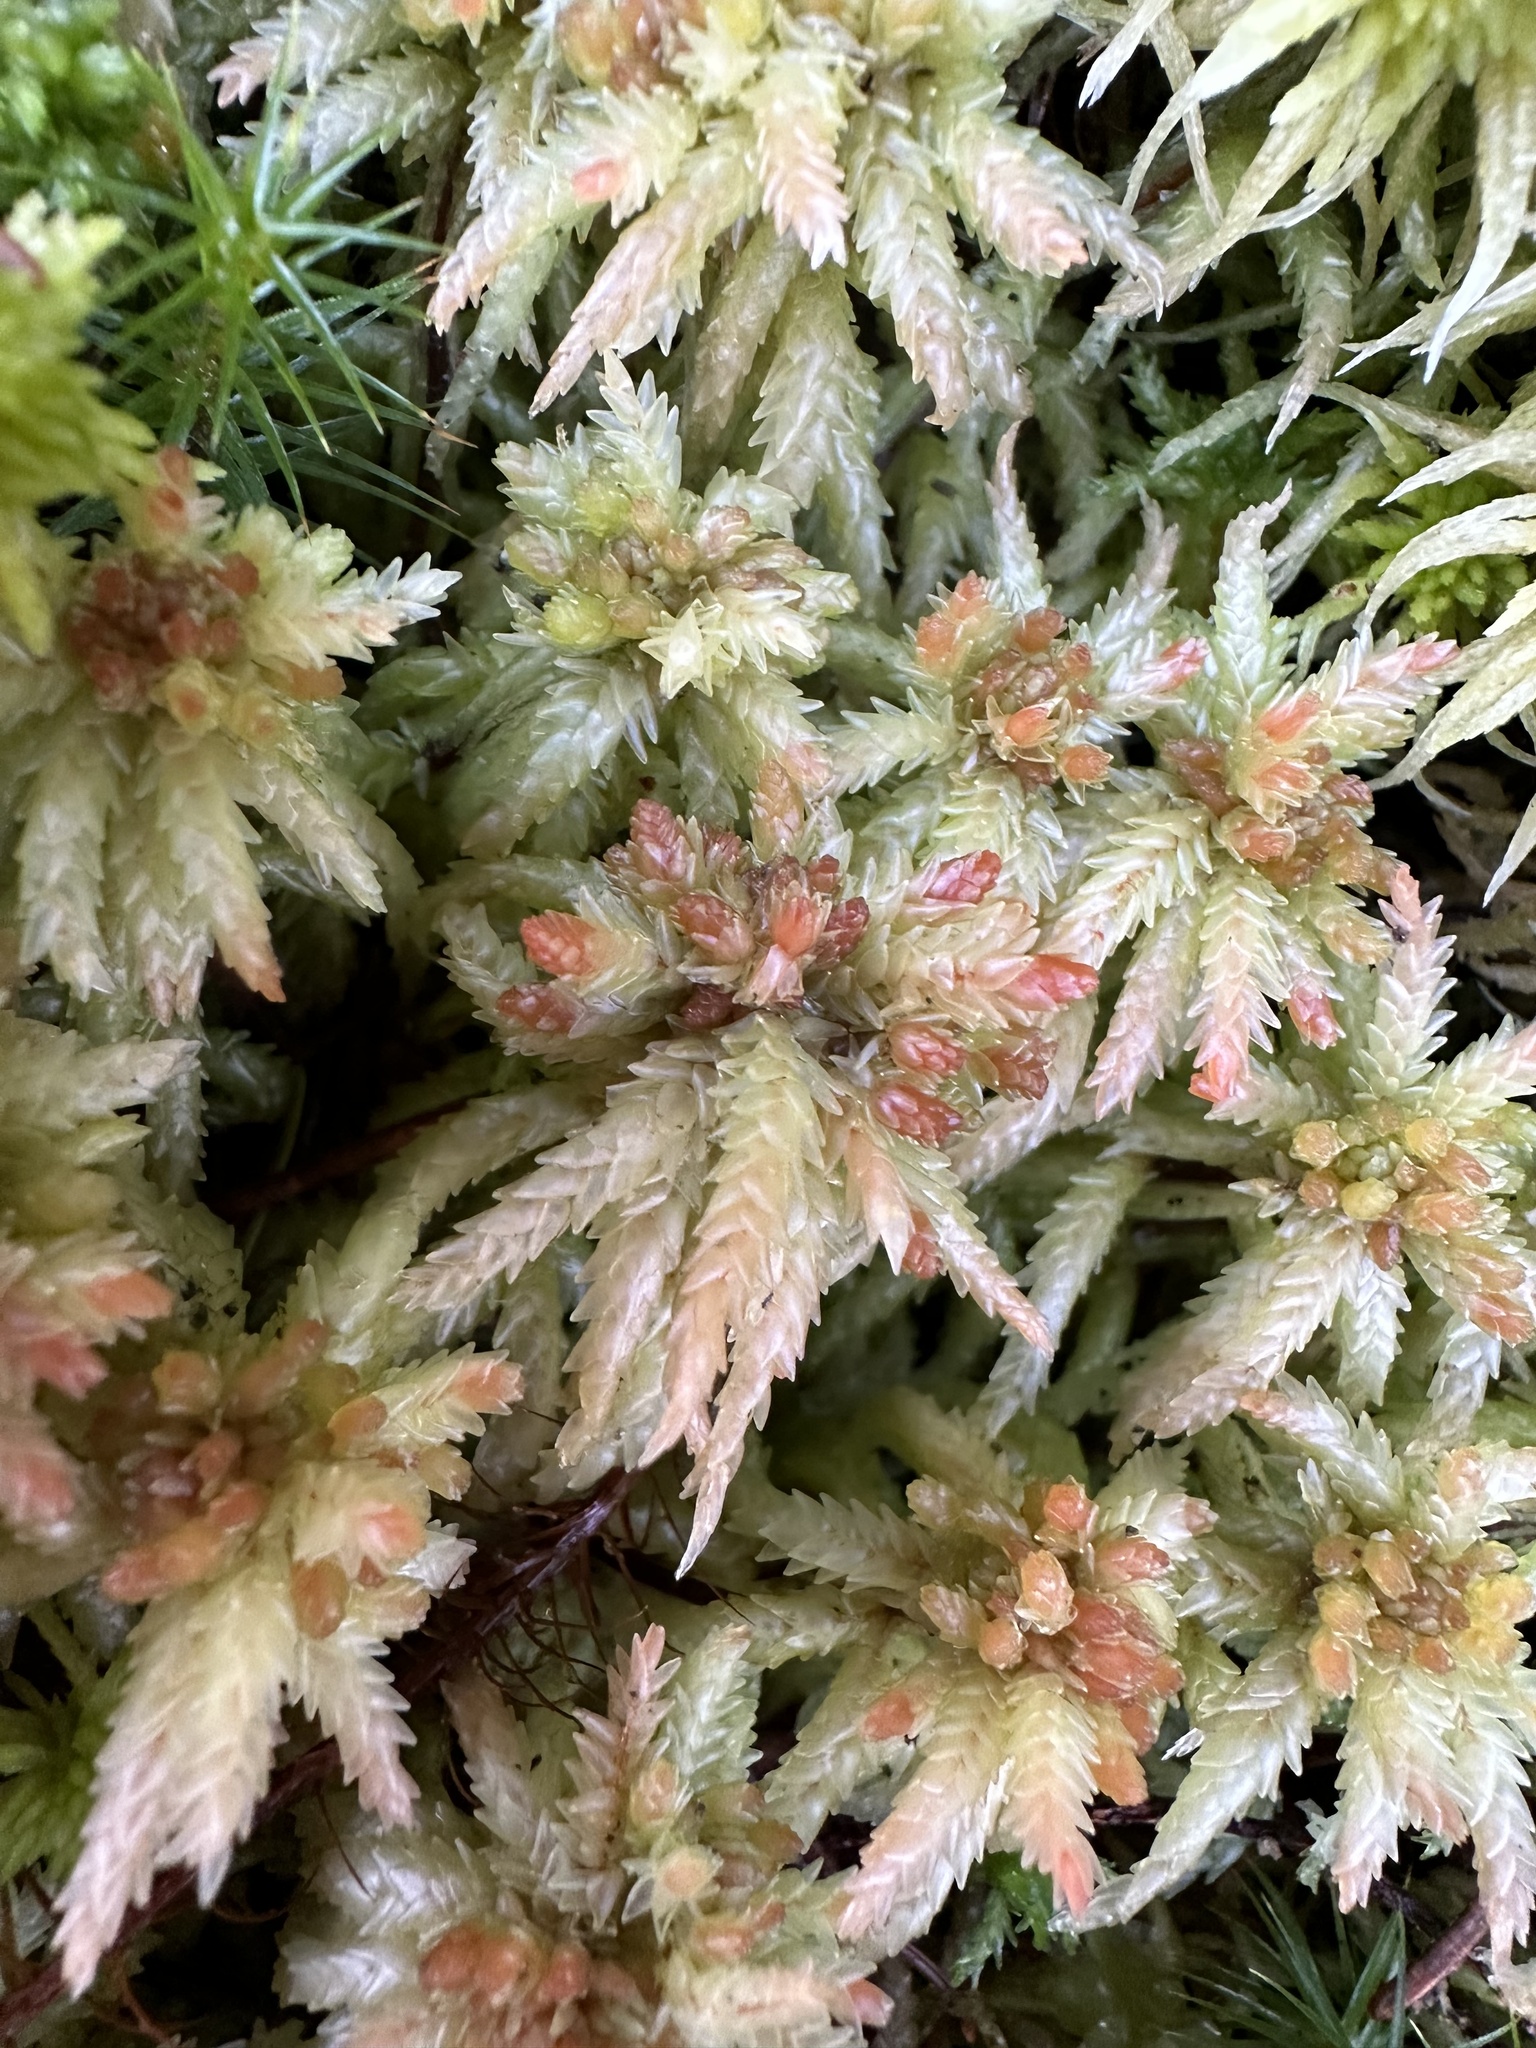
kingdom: Plantae
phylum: Bryophyta
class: Sphagnopsida
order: Sphagnales
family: Sphagnaceae
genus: Sphagnum
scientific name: Sphagnum palustre
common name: Blunt-leaved bog-moss
